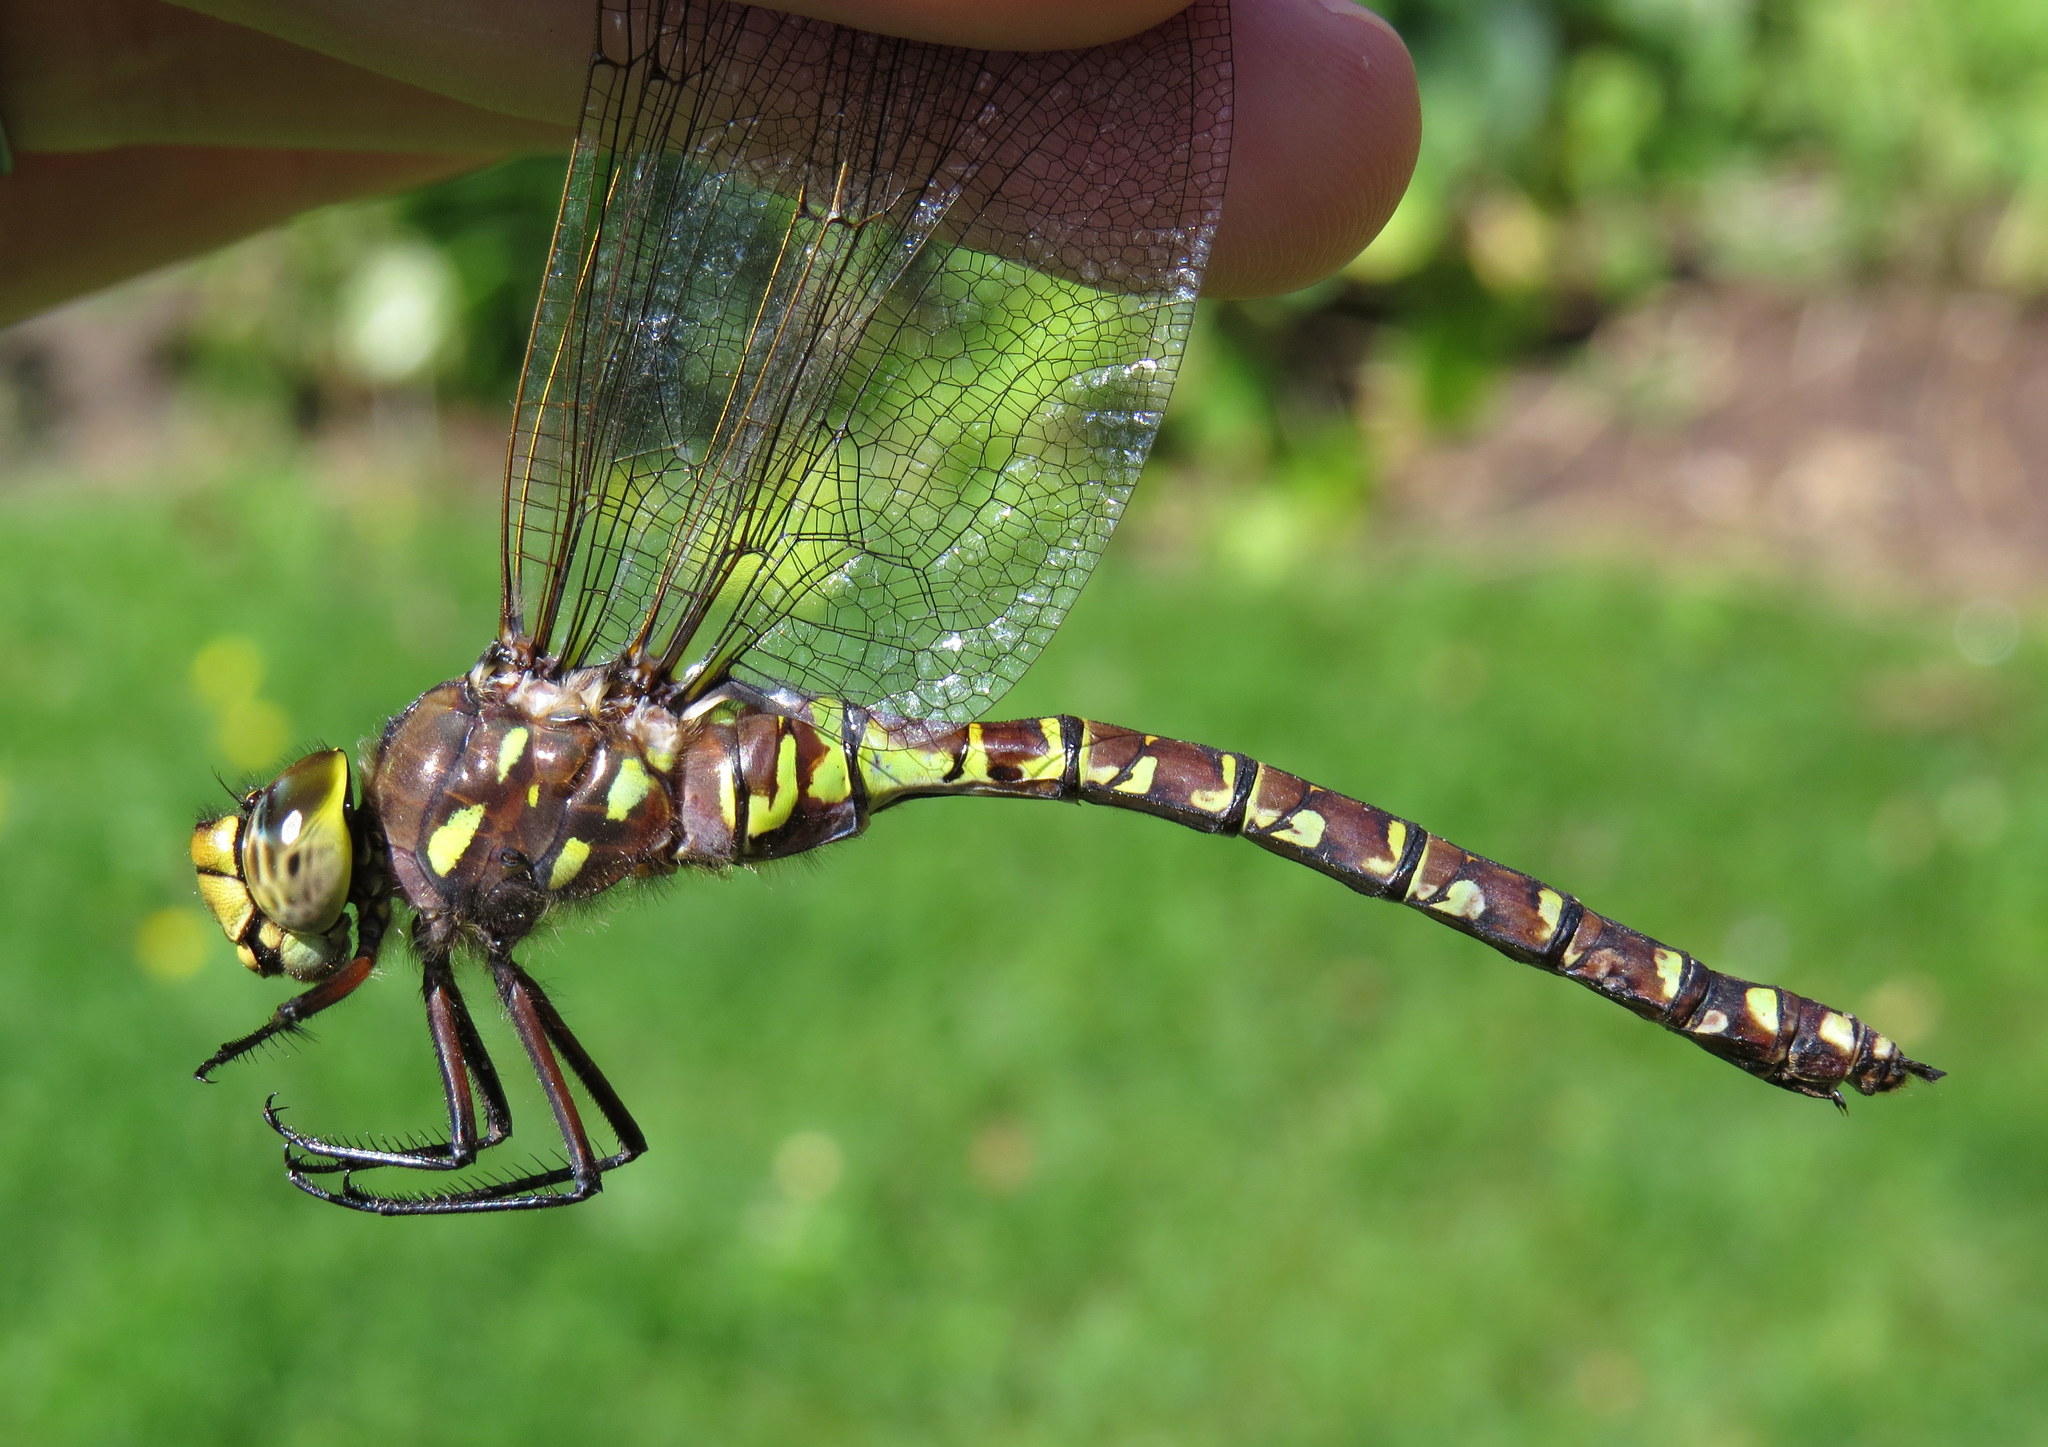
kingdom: Animalia
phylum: Arthropoda
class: Insecta
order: Odonata
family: Aeshnidae
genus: Aeshna
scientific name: Aeshna interrupta
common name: Variable darner
